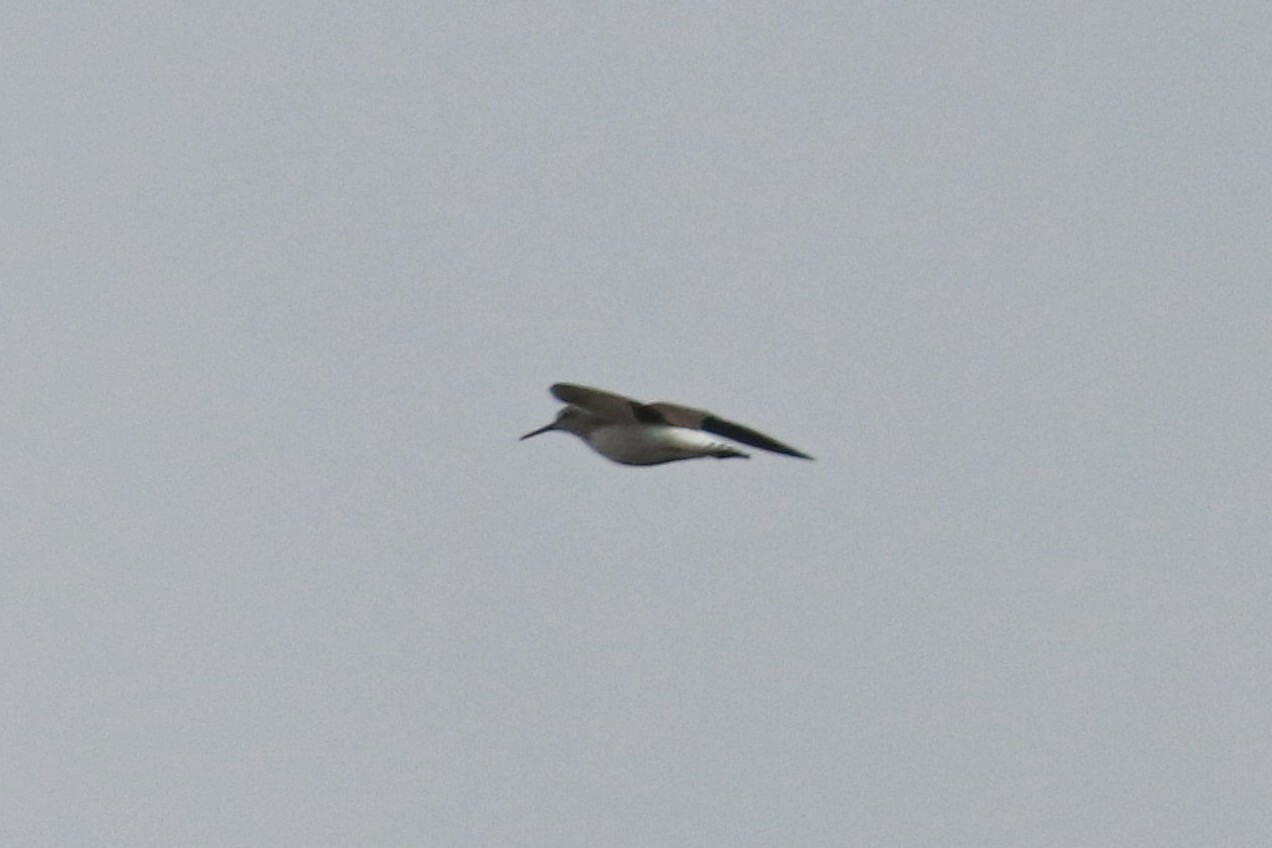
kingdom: Animalia
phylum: Chordata
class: Aves
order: Charadriiformes
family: Scolopacidae
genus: Tringa
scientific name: Tringa ochropus
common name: Green sandpiper
